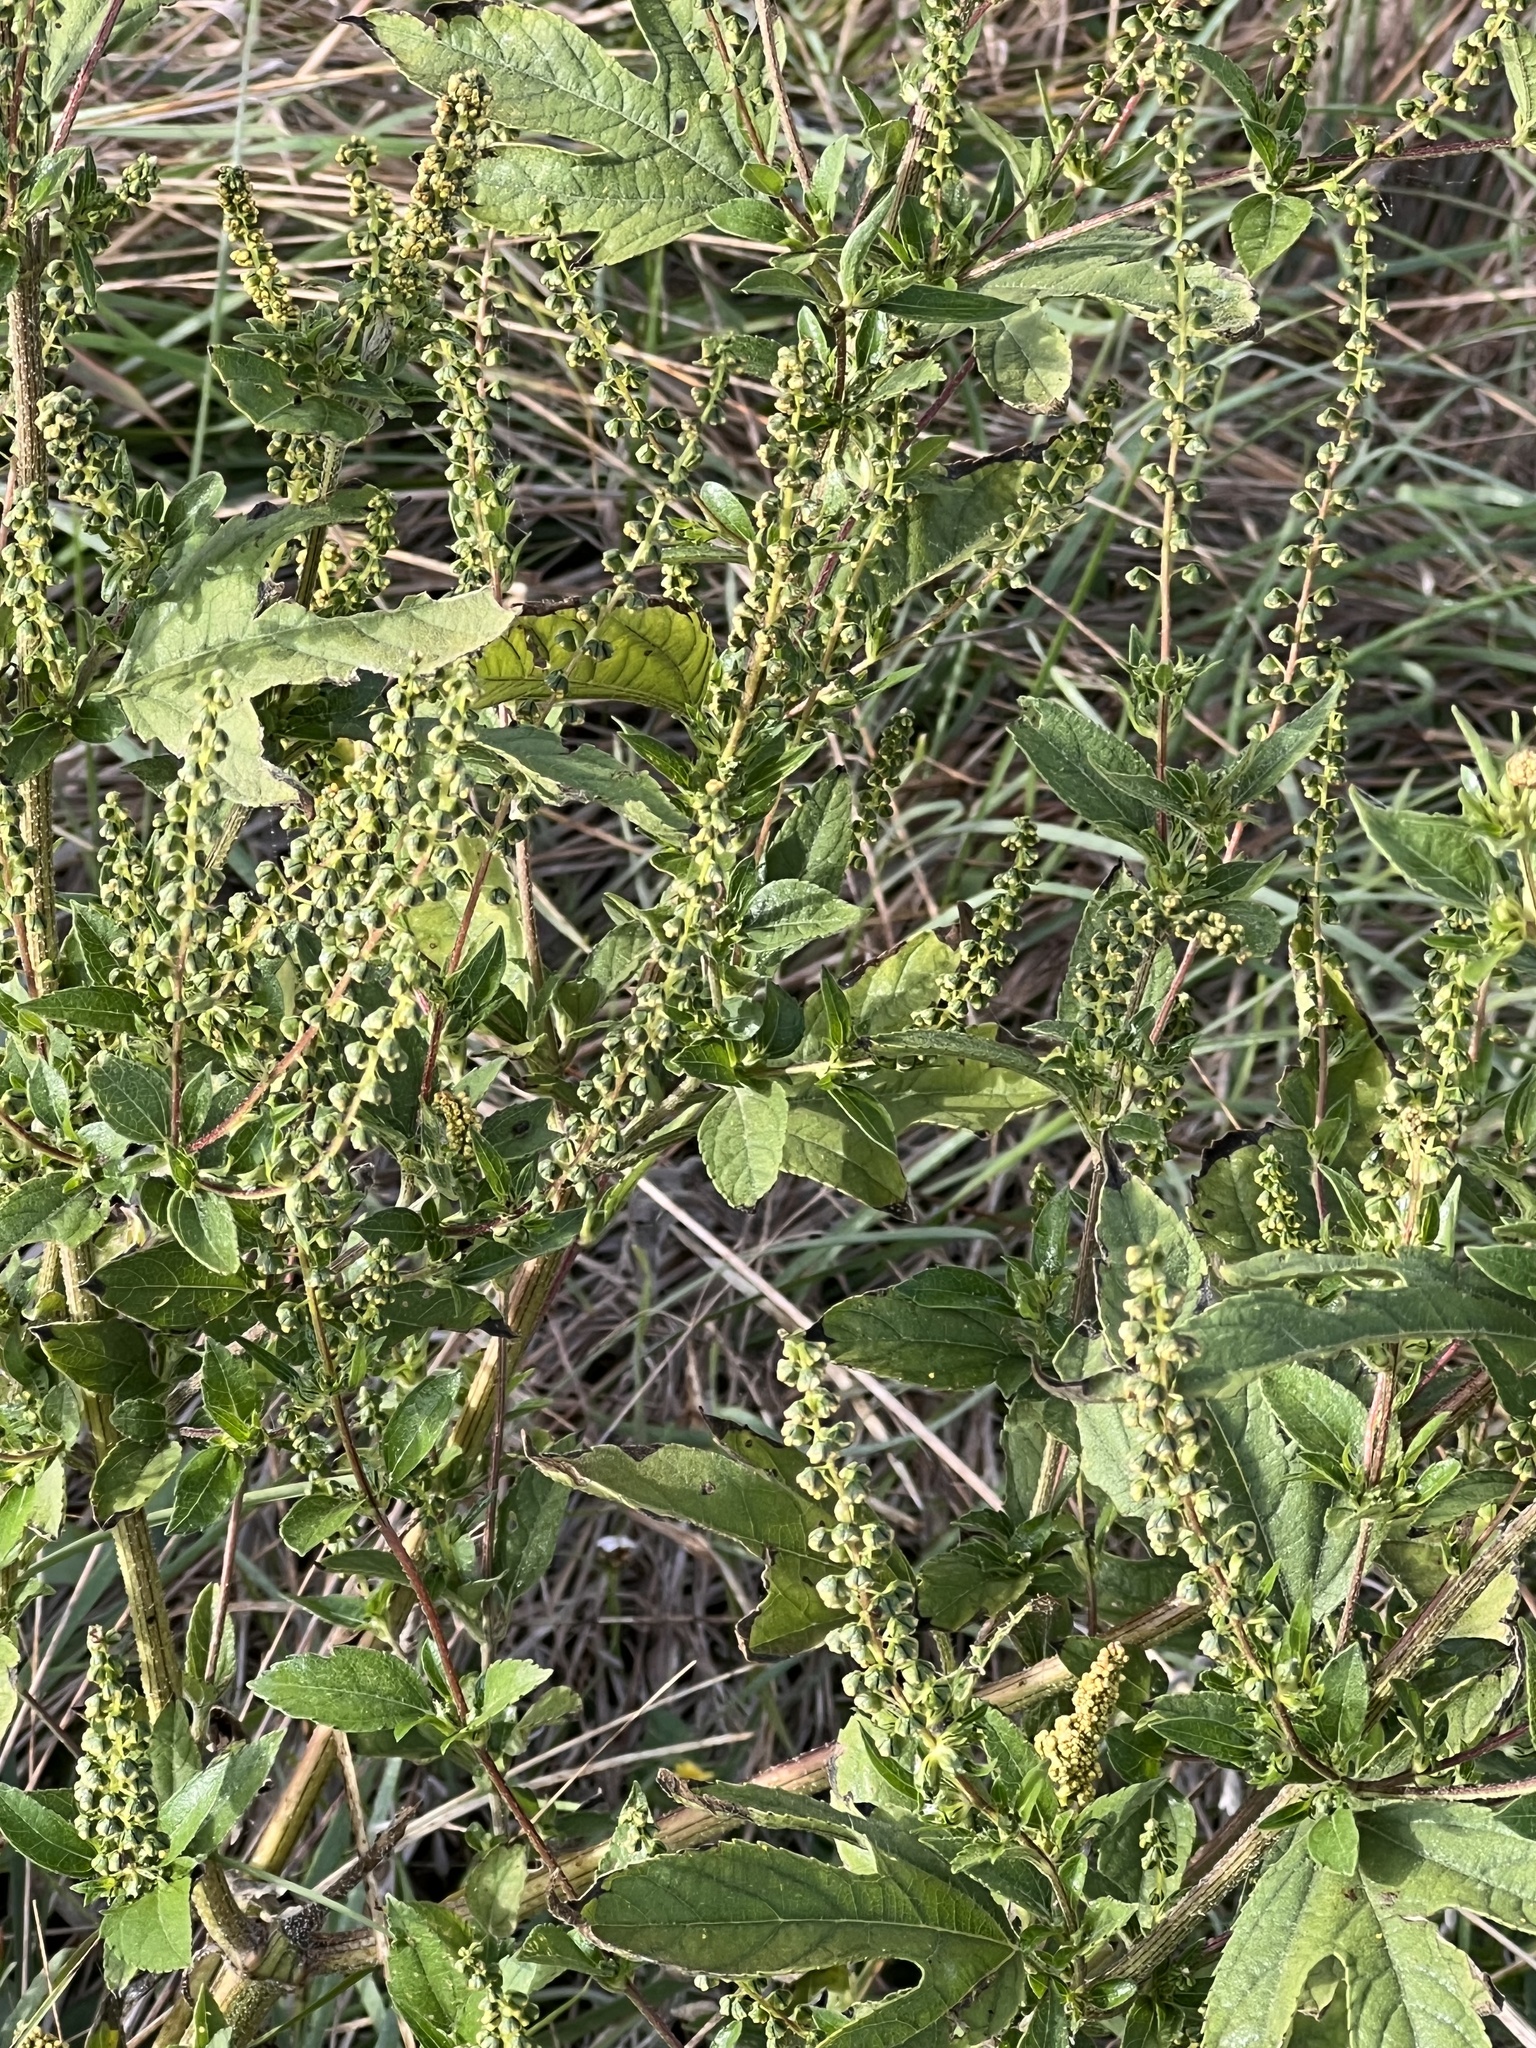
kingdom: Plantae
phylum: Tracheophyta
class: Magnoliopsida
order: Asterales
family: Asteraceae
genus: Ambrosia
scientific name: Ambrosia trifida
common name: Giant ragweed
